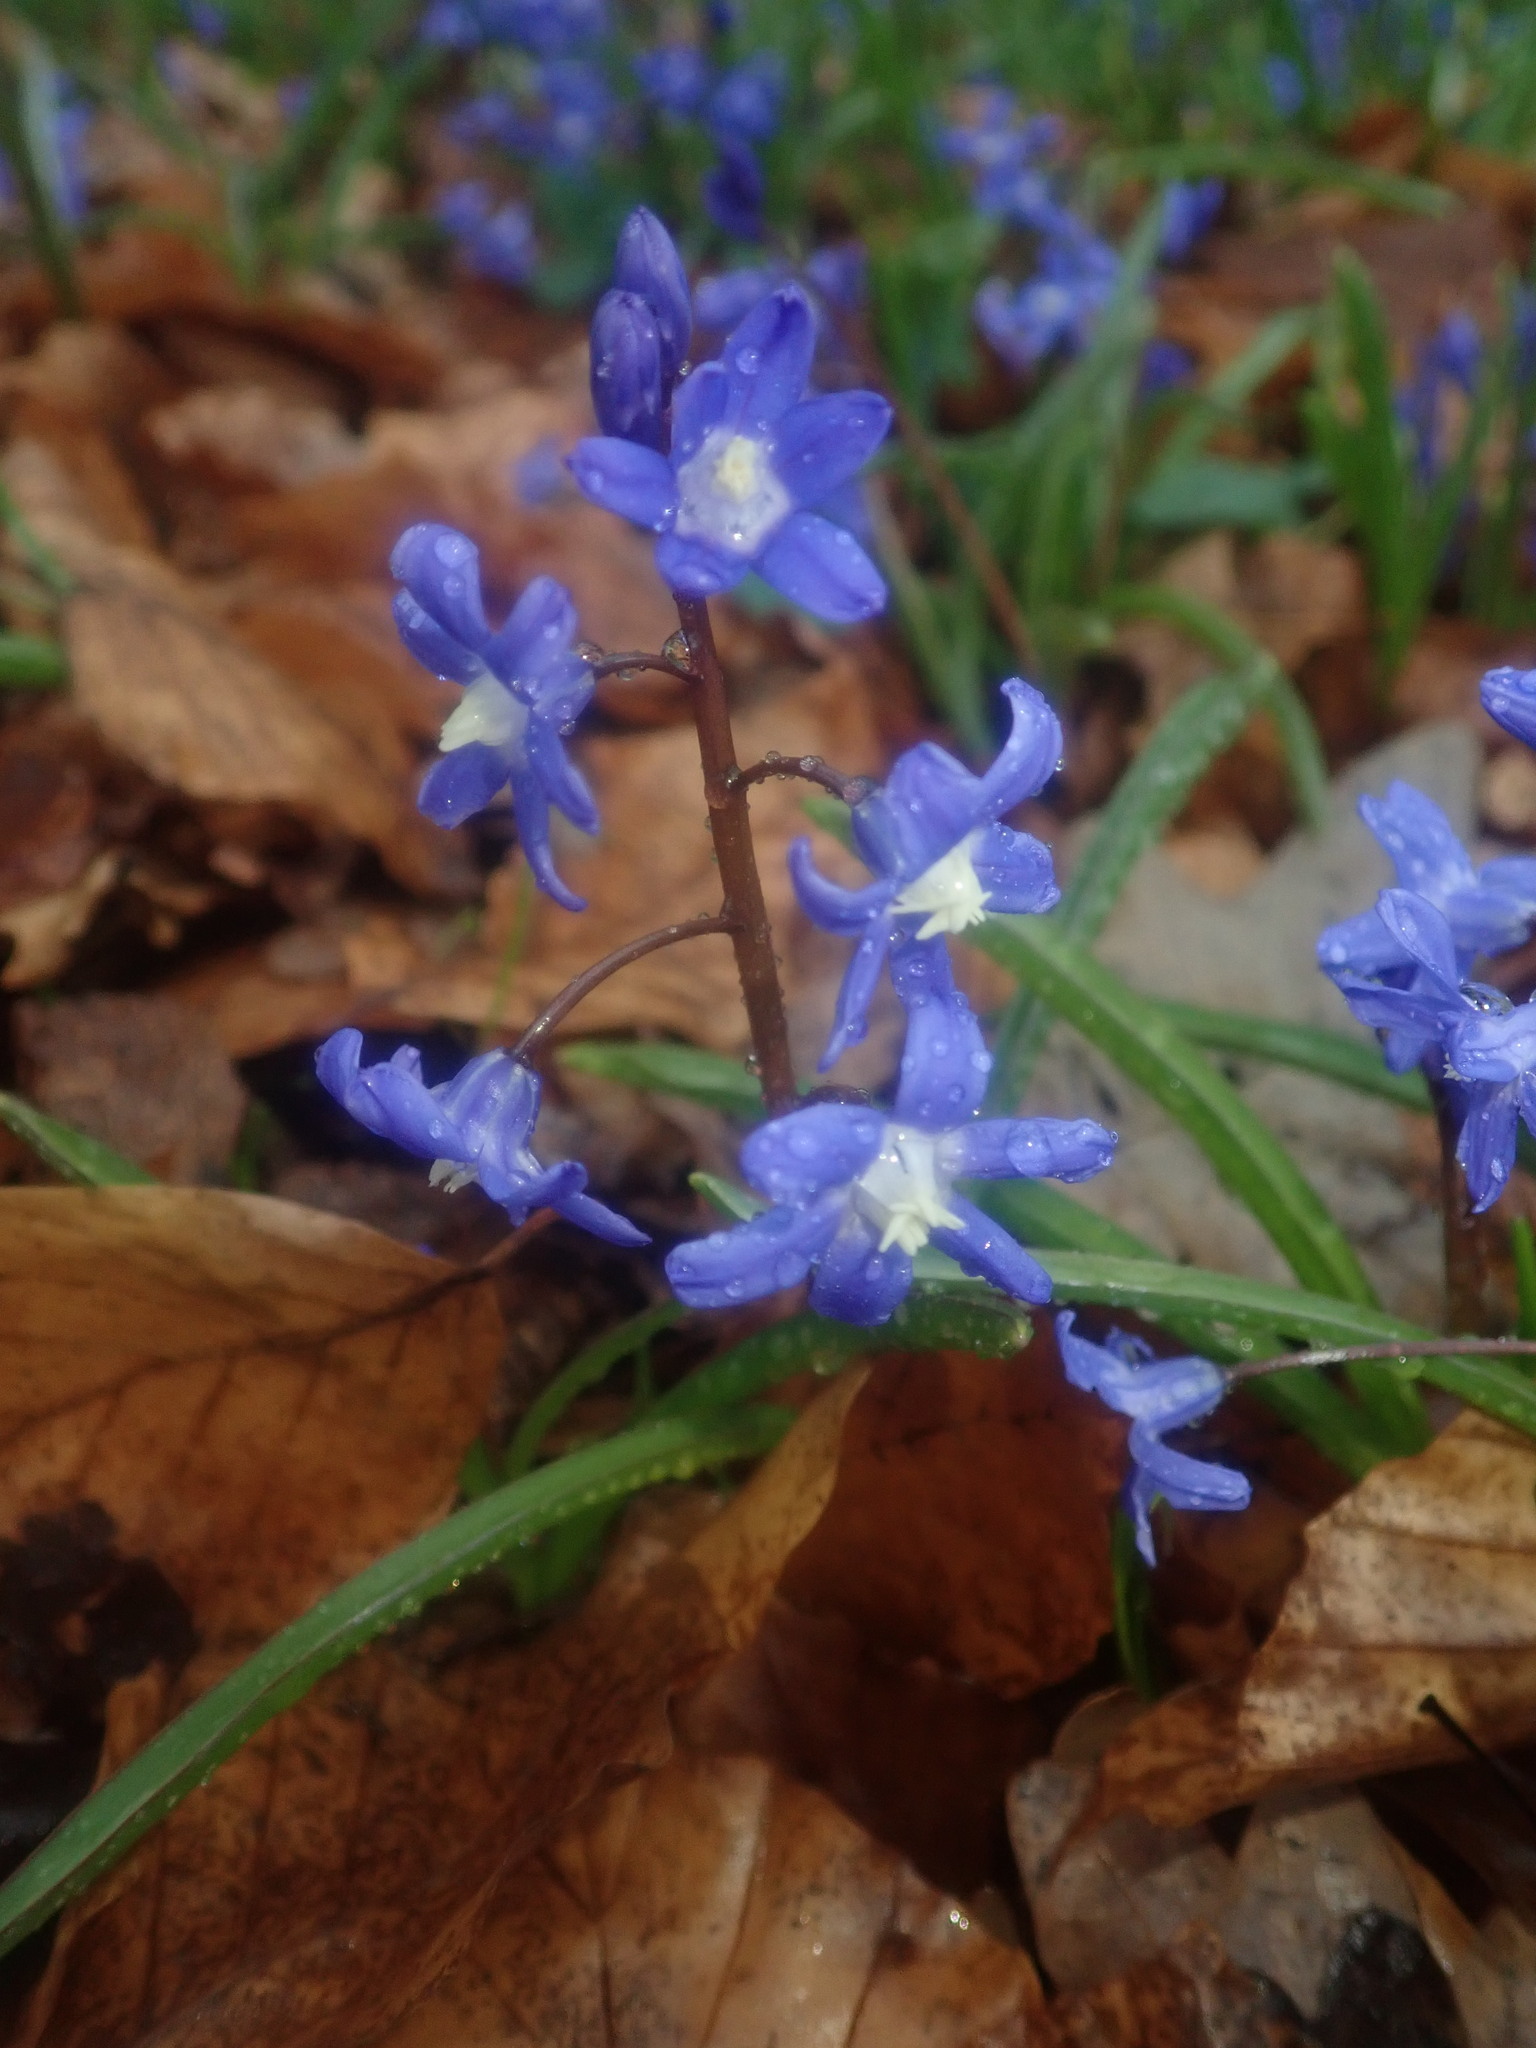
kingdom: Plantae
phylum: Tracheophyta
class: Liliopsida
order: Asparagales
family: Asparagaceae
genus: Scilla
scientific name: Scilla forbesii
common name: Glory-of-the-snow
